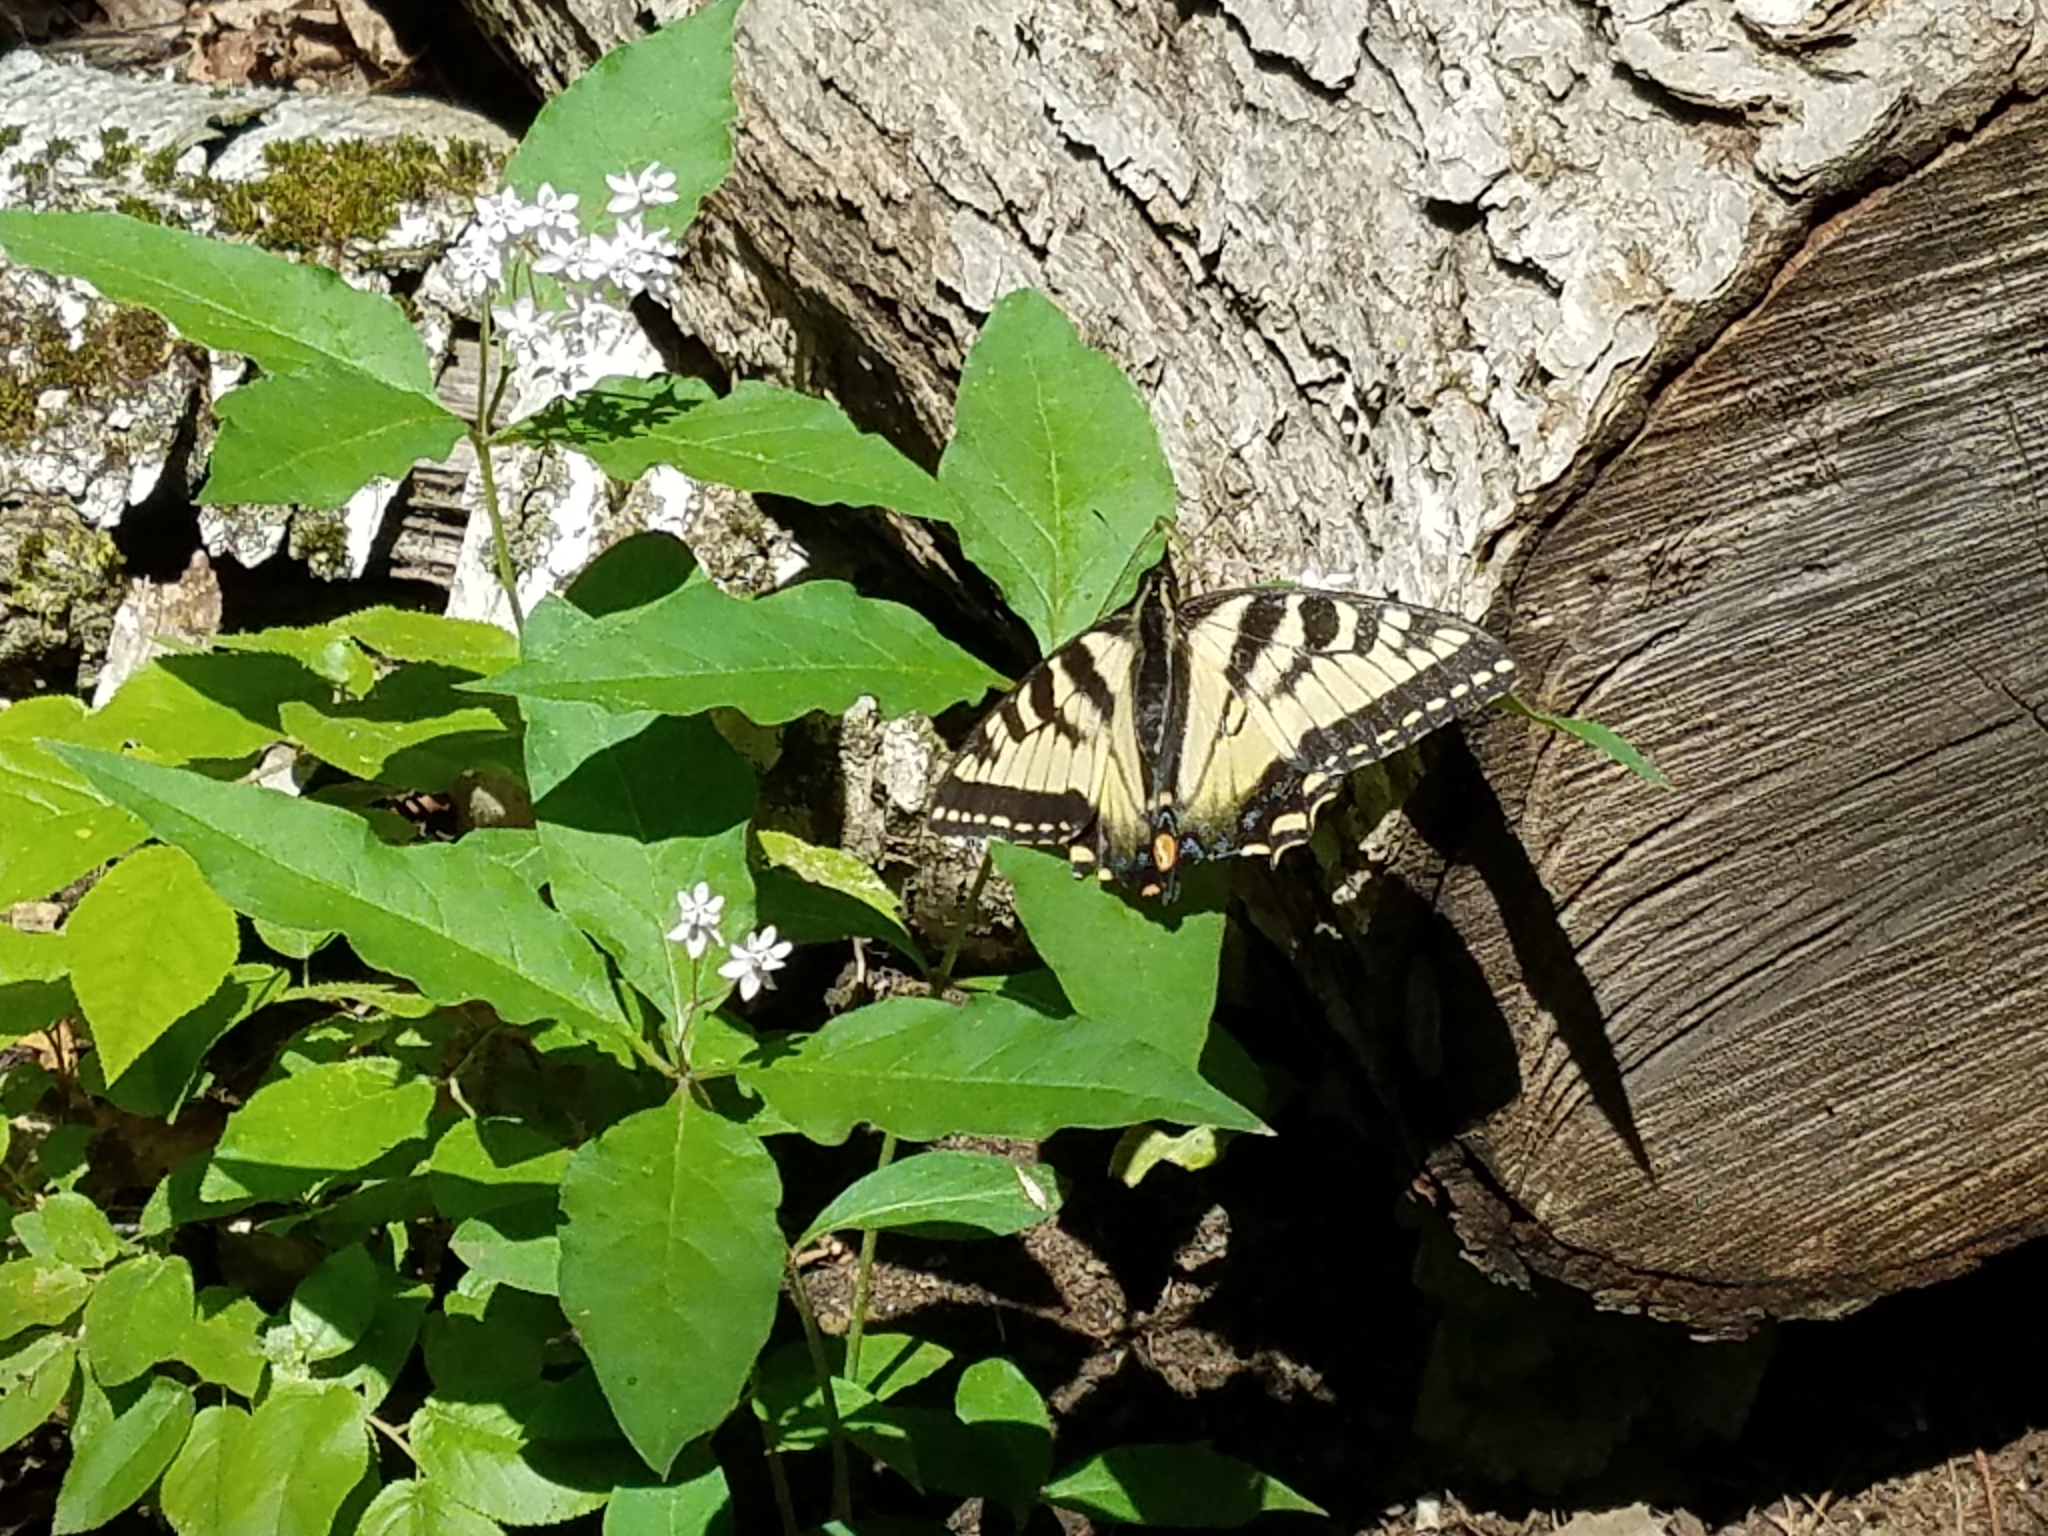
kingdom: Plantae
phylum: Tracheophyta
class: Magnoliopsida
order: Gentianales
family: Apocynaceae
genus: Asclepias
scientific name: Asclepias quadrifolia
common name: Whorled milkweed
